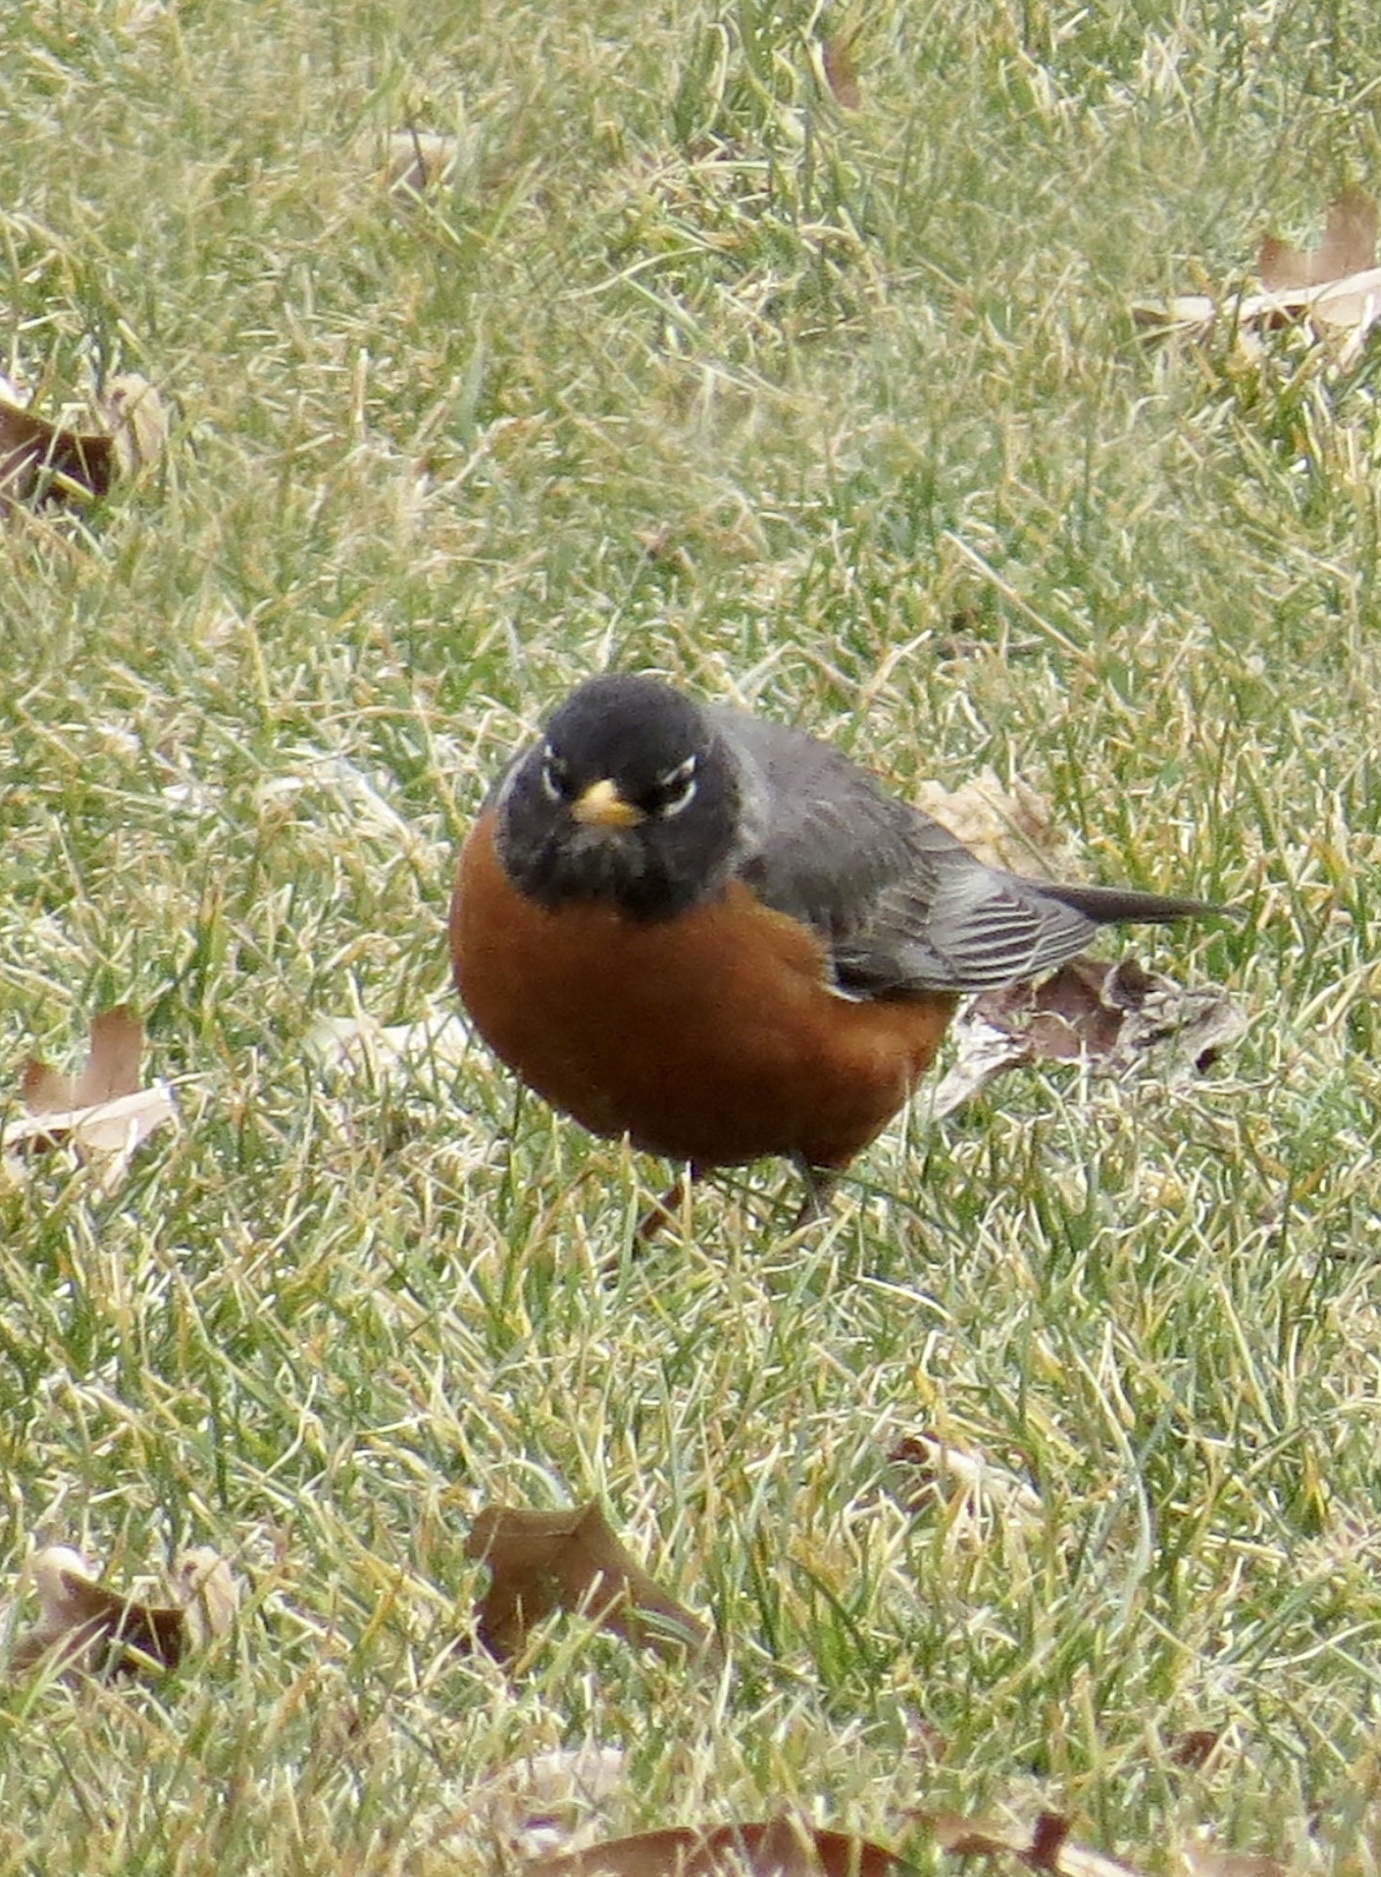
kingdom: Animalia
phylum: Chordata
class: Aves
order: Passeriformes
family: Turdidae
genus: Turdus
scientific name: Turdus migratorius
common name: American robin
